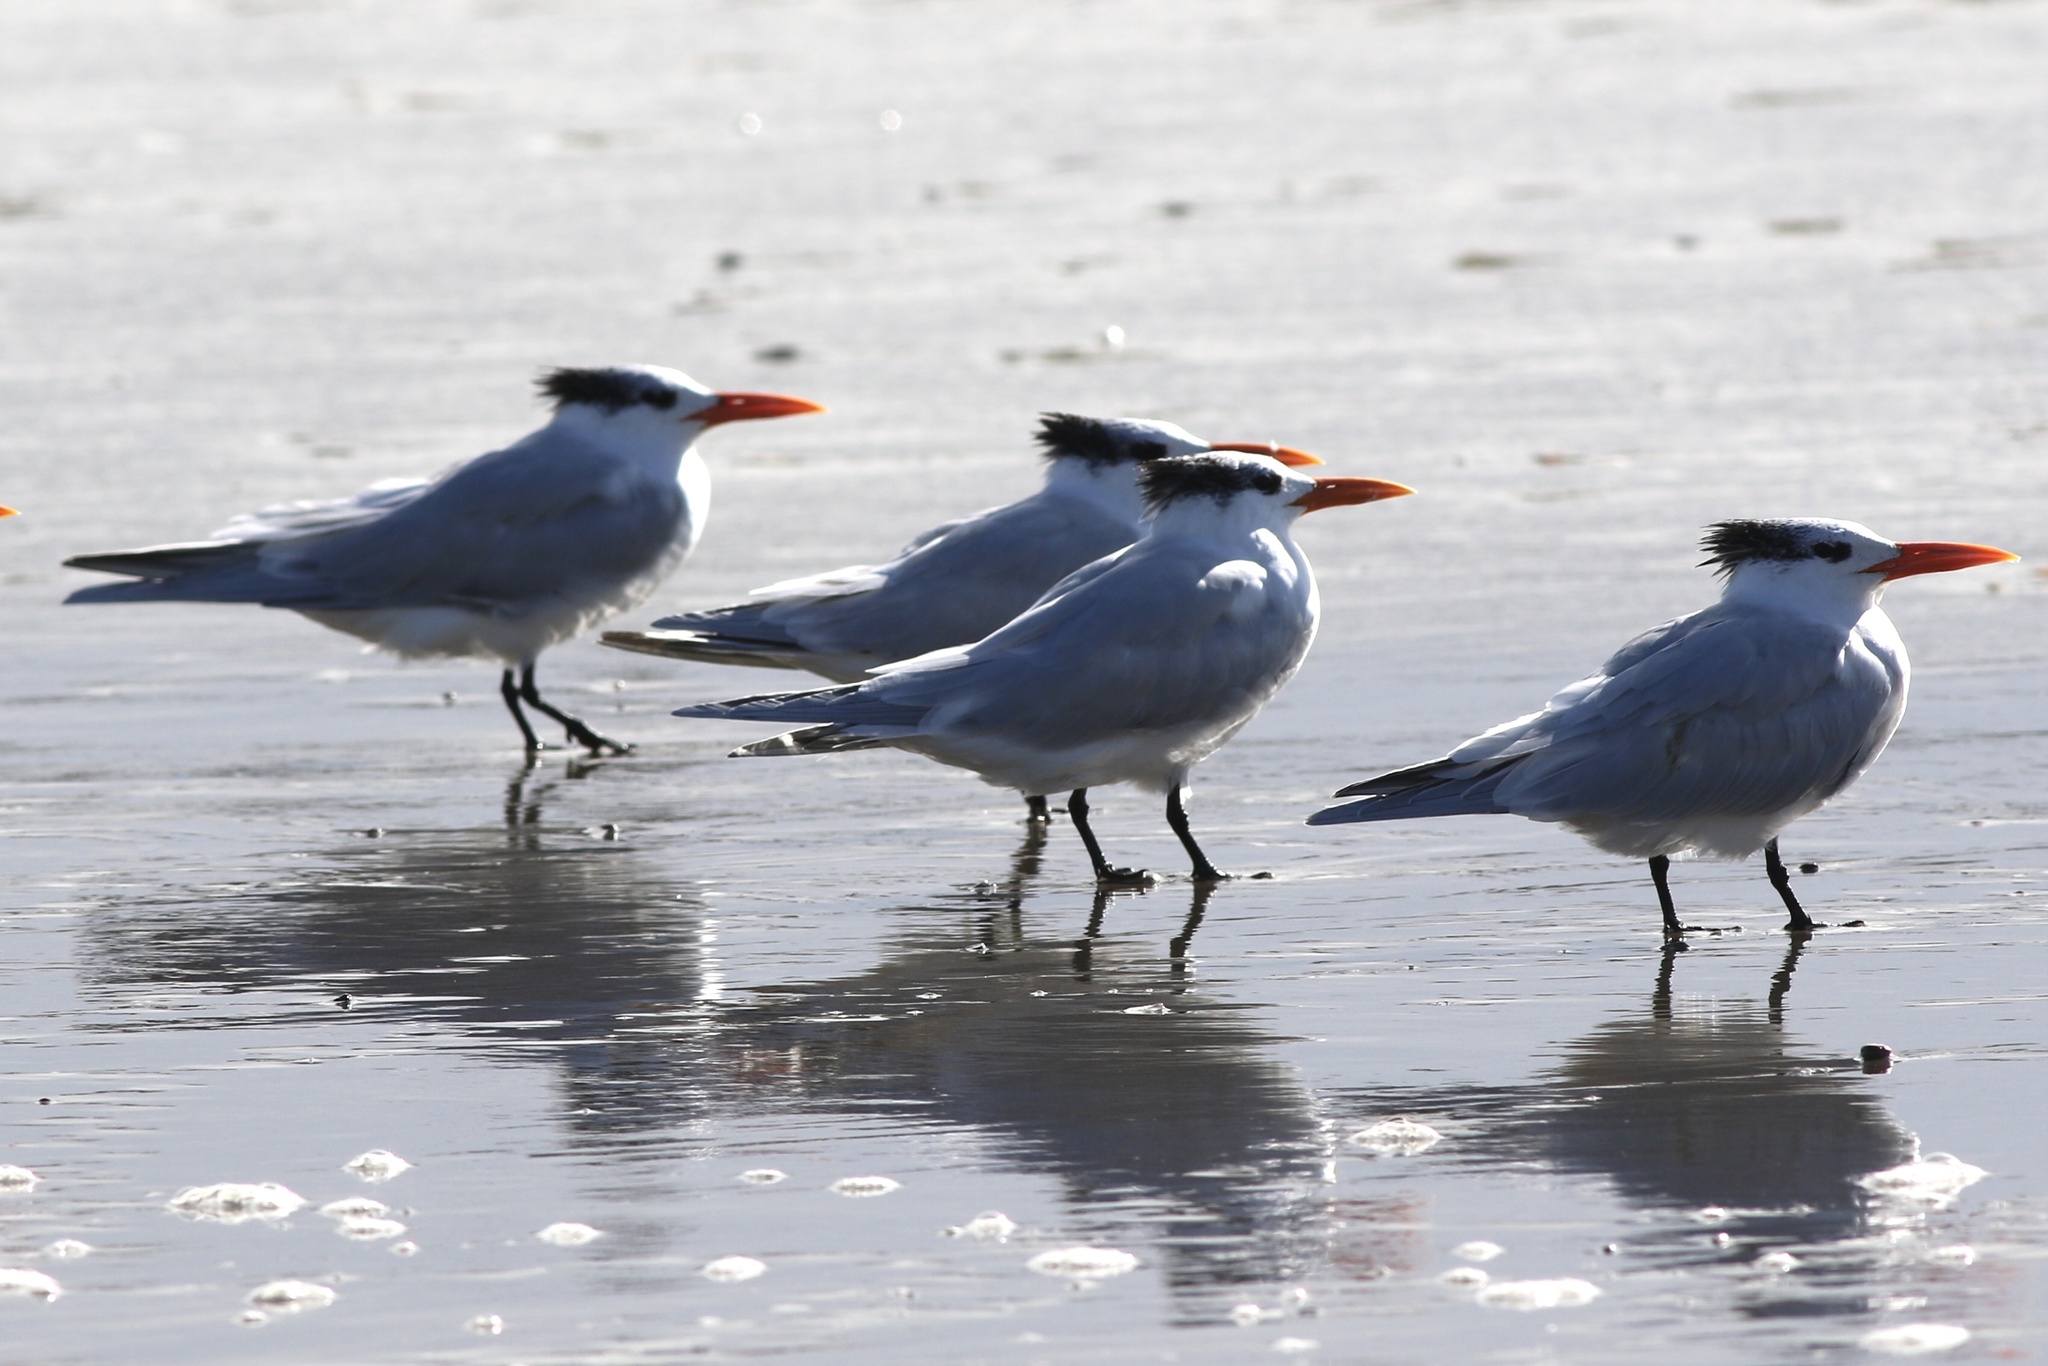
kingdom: Animalia
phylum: Chordata
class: Aves
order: Charadriiformes
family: Laridae
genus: Thalasseus
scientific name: Thalasseus maximus
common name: Royal tern
